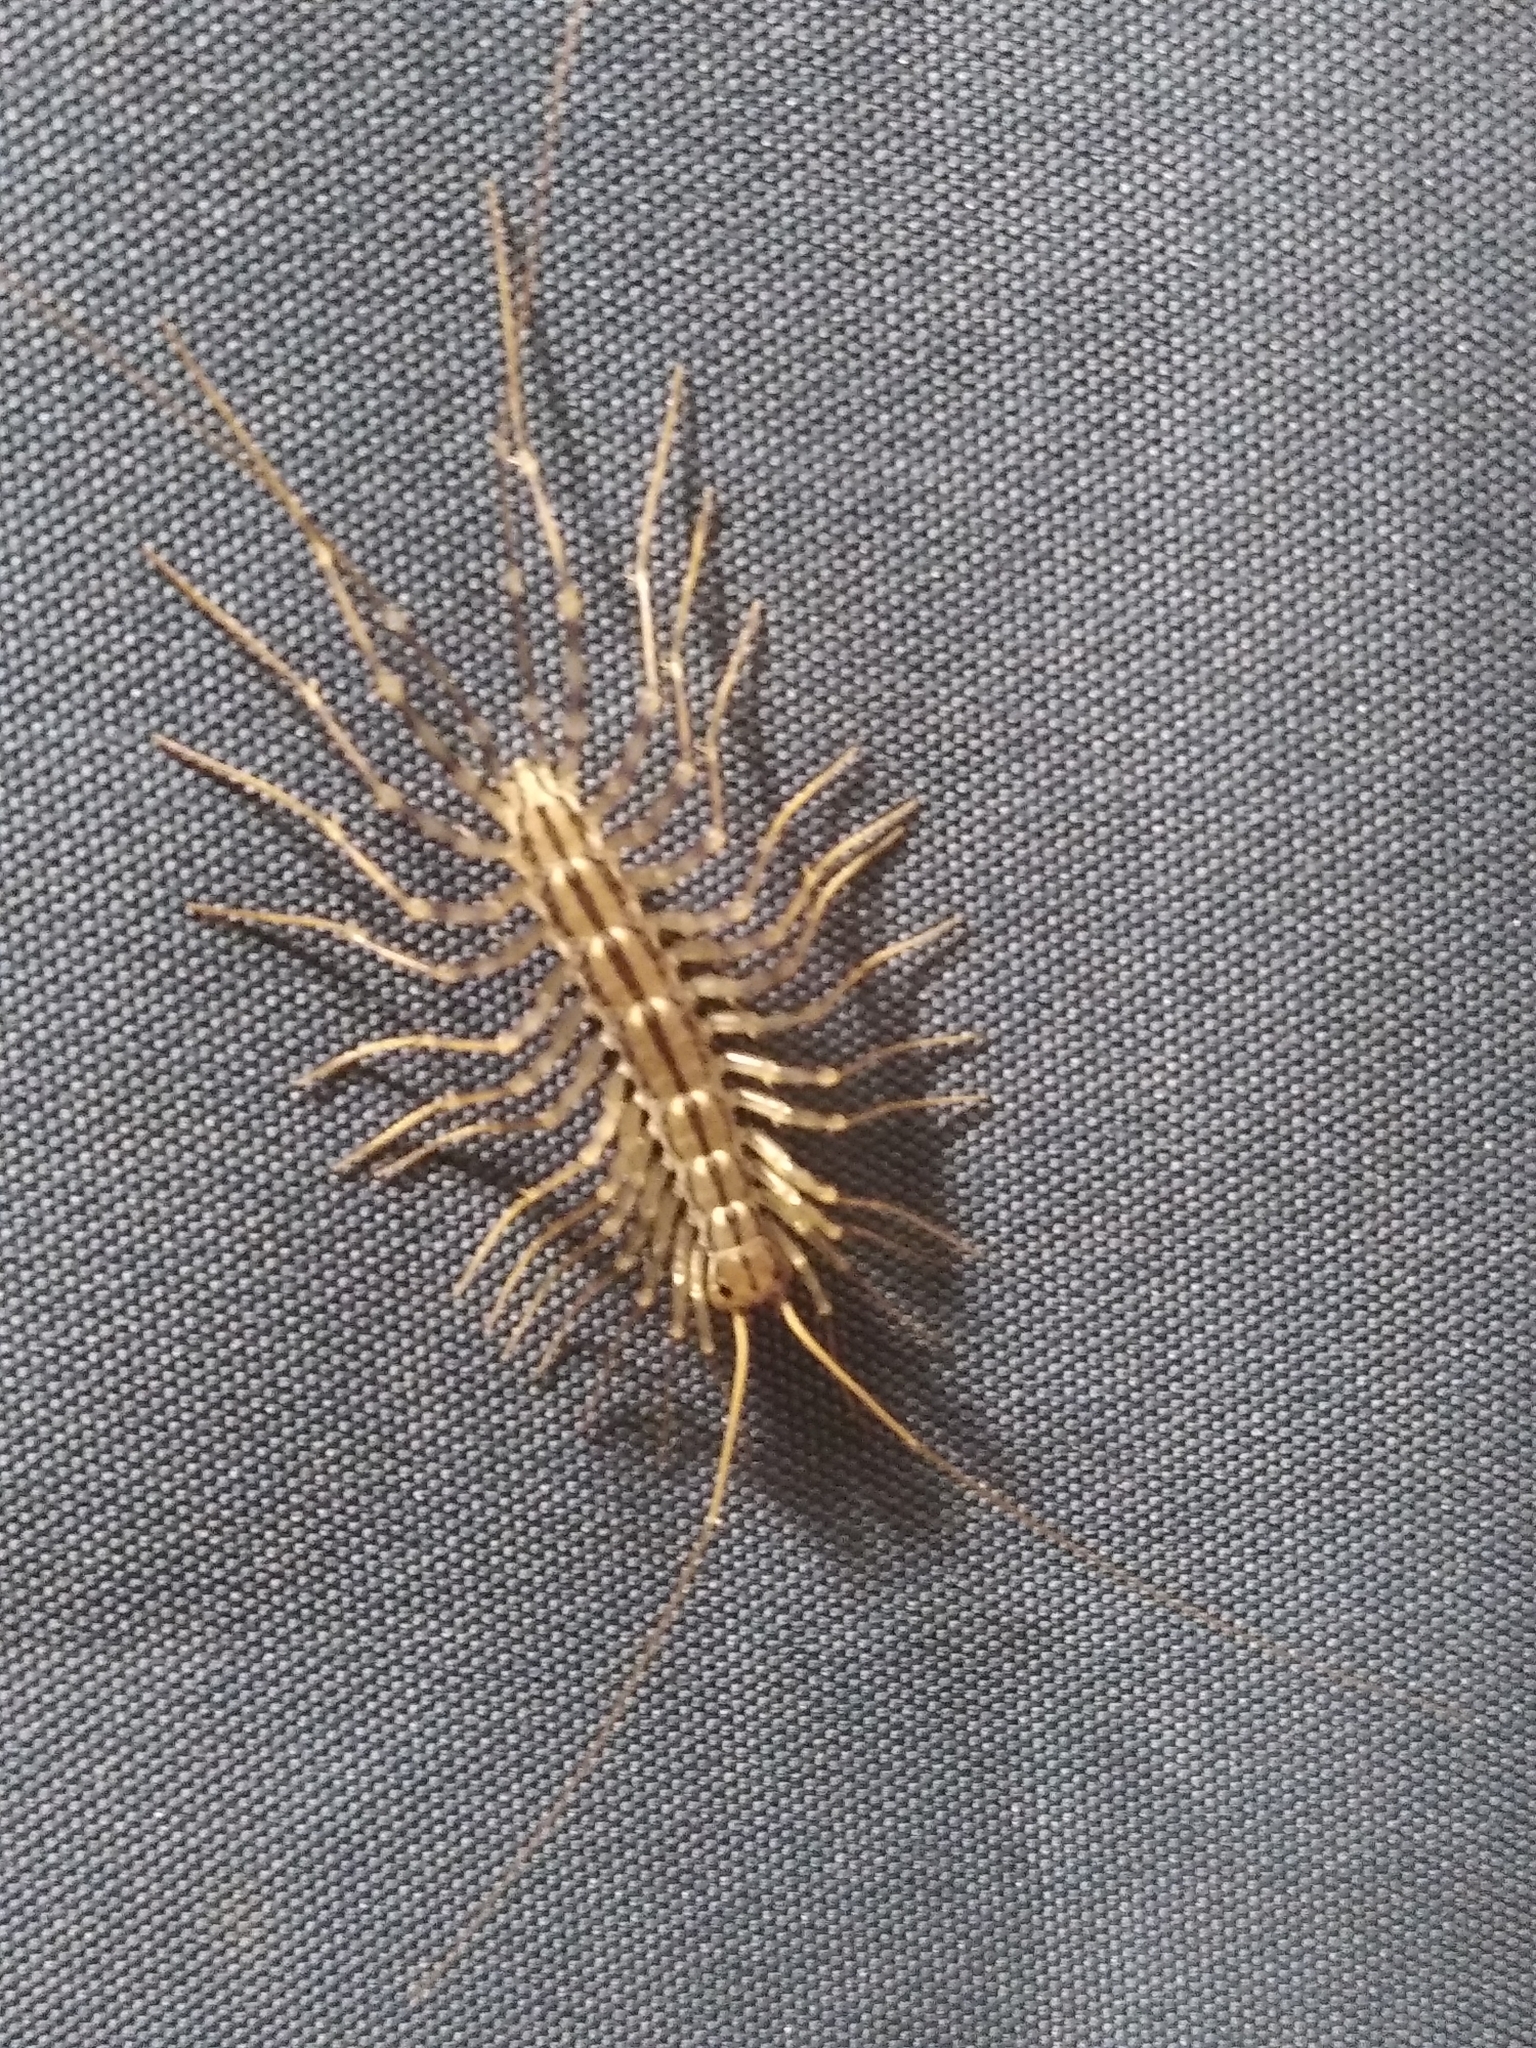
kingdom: Animalia
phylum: Arthropoda
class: Chilopoda
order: Scutigeromorpha
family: Scutigeridae
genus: Scutigera
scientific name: Scutigera coleoptrata
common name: House centipede
